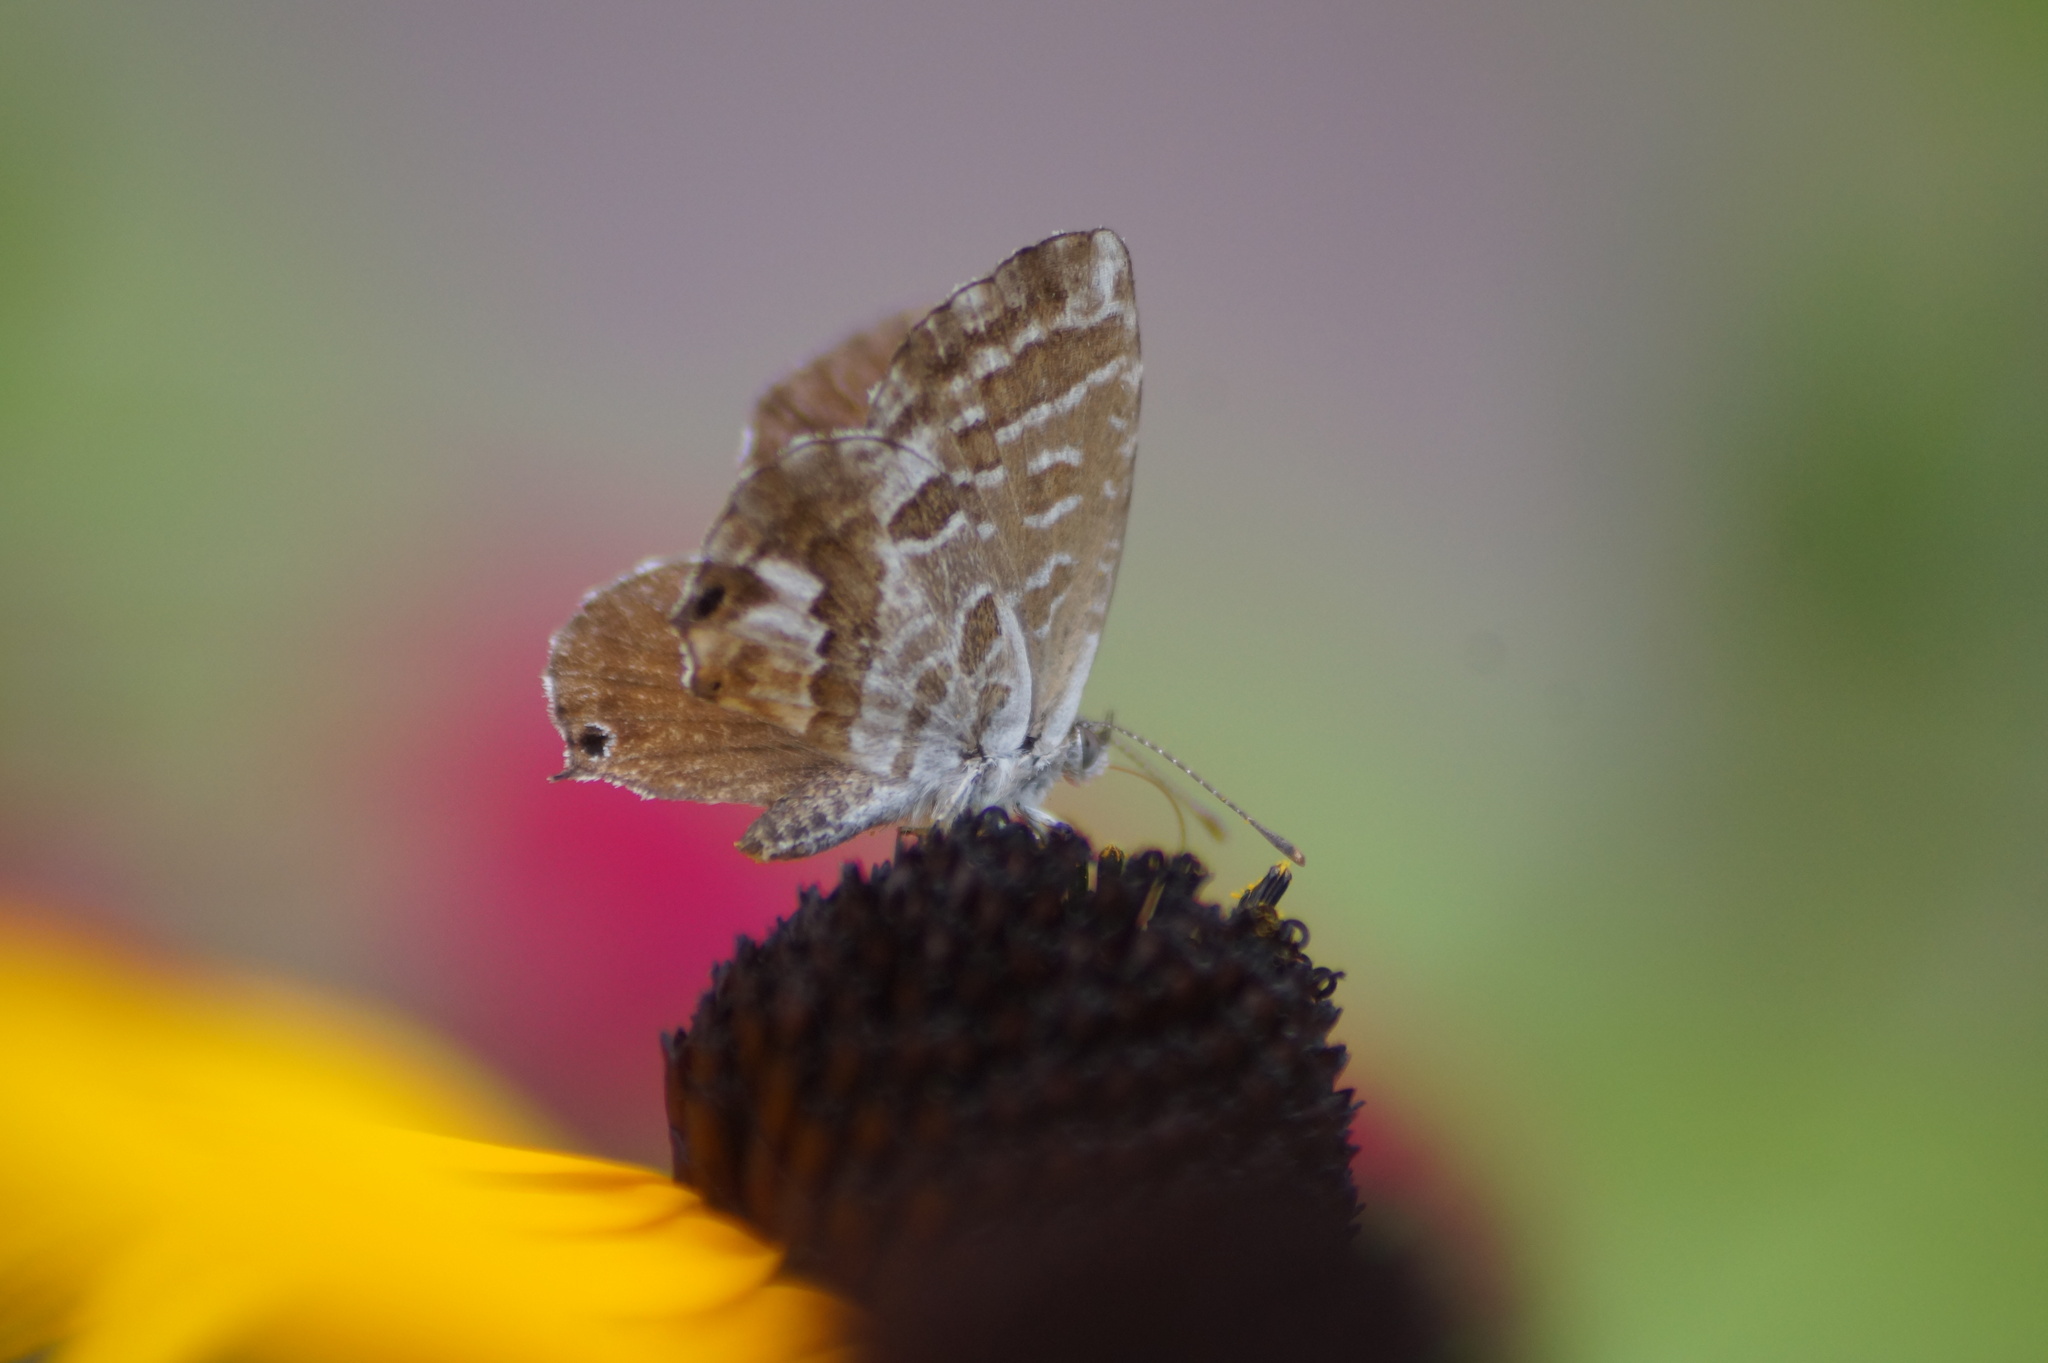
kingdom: Animalia
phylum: Arthropoda
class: Insecta
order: Lepidoptera
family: Lycaenidae
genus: Cacyreus
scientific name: Cacyreus marshalli
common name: Geranium bronze
